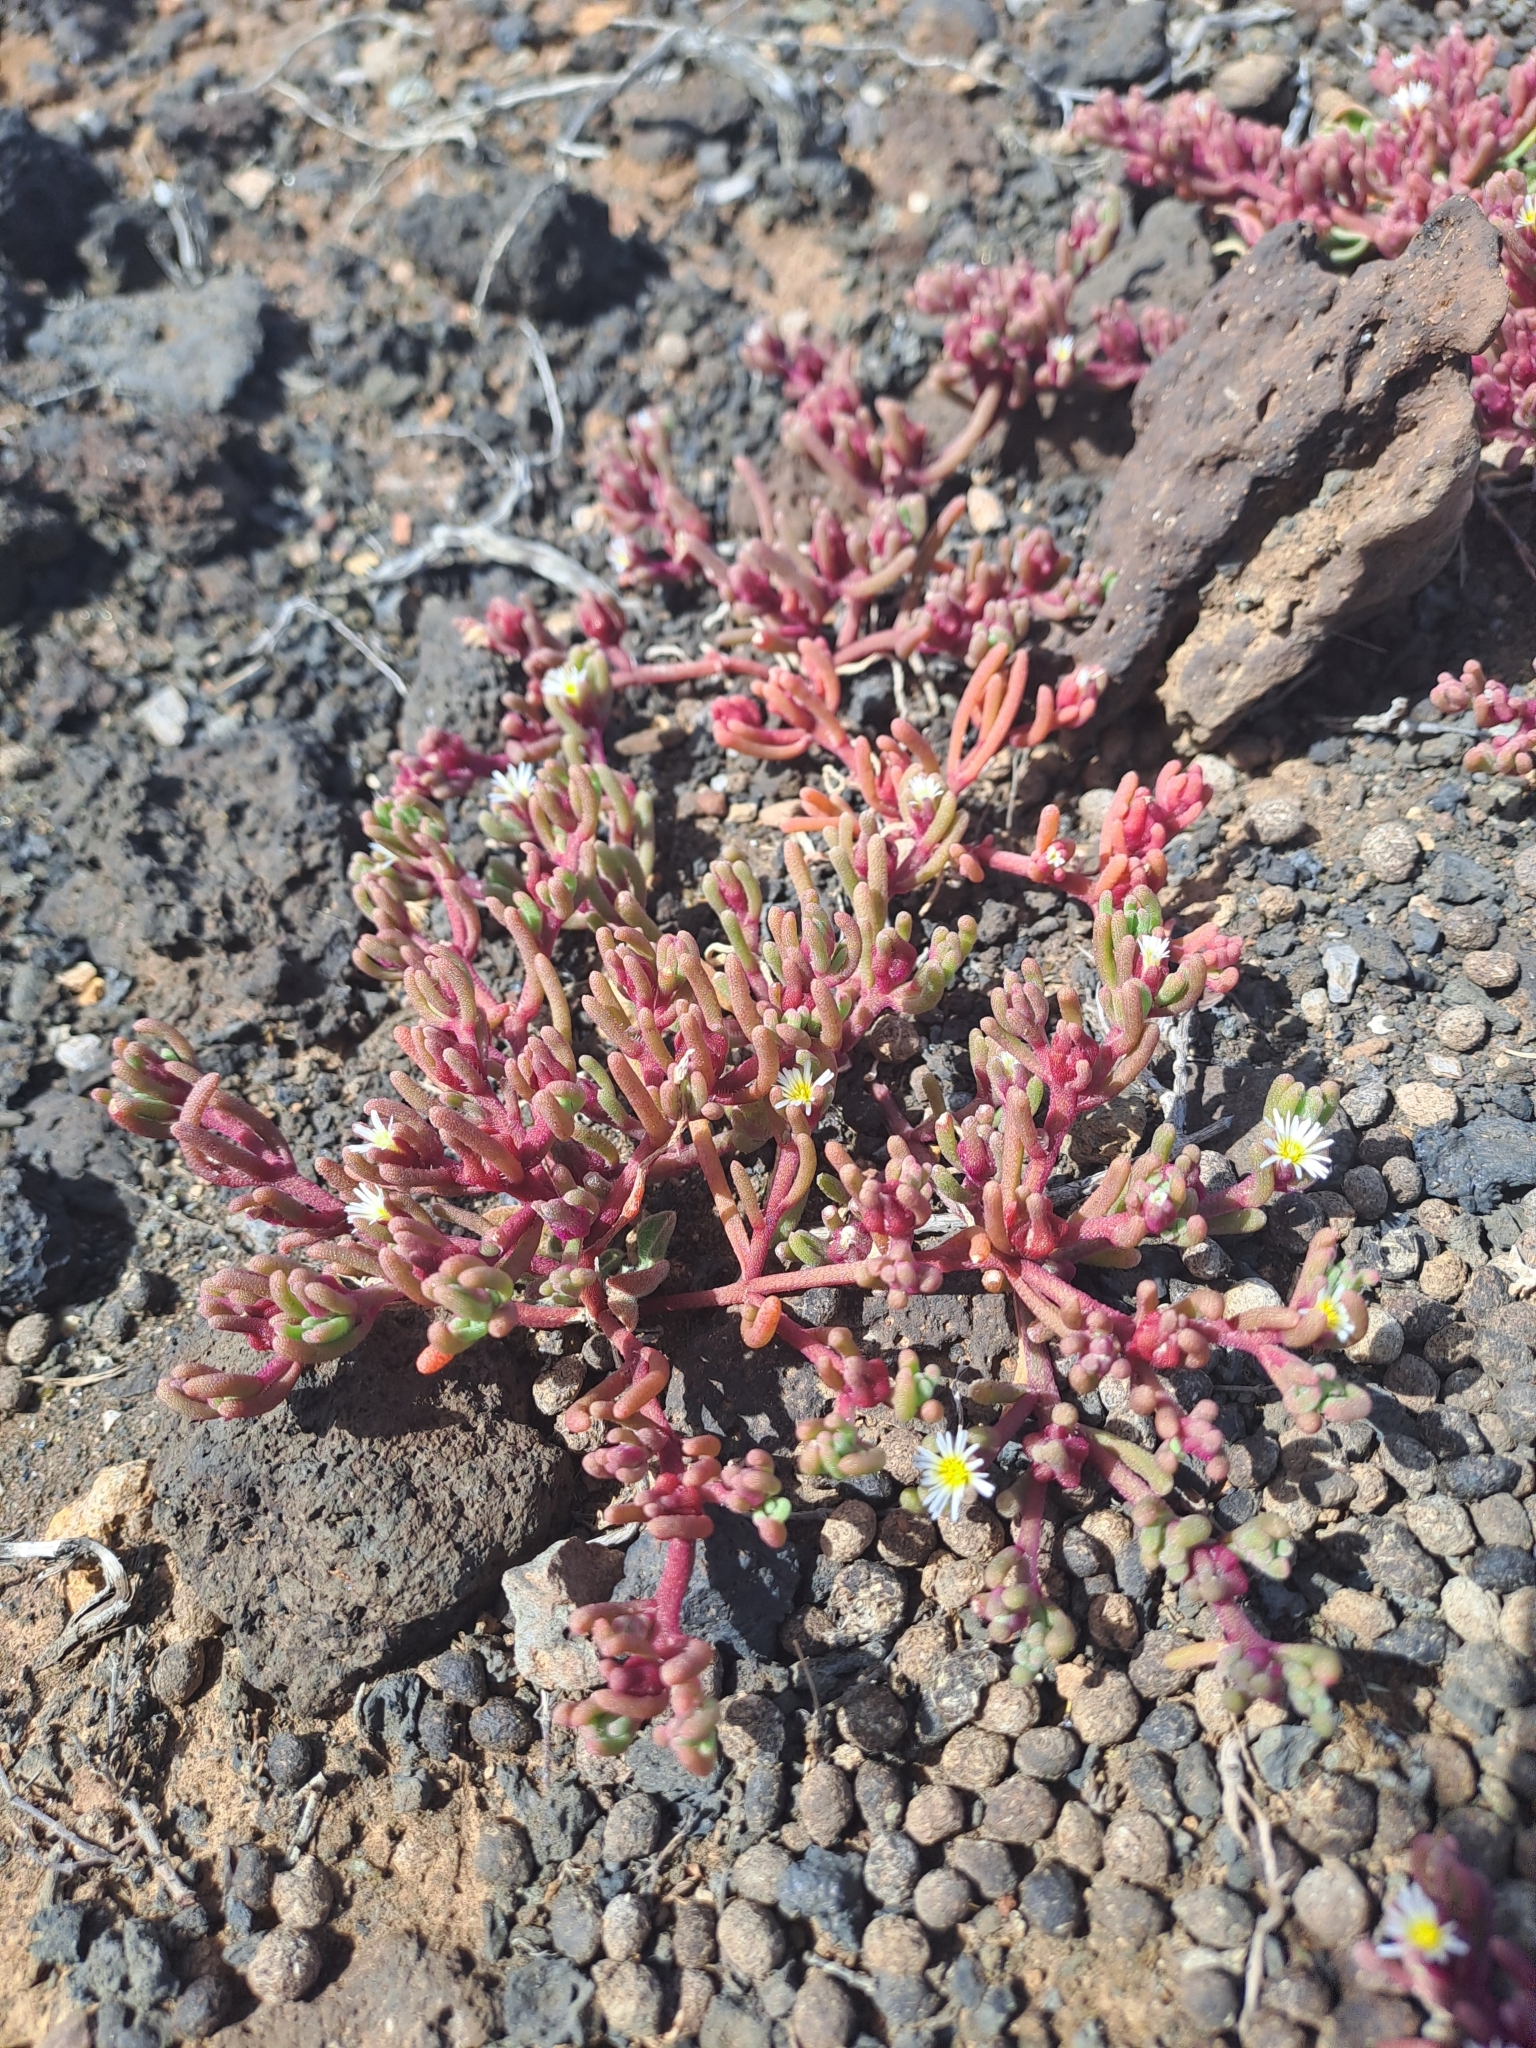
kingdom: Plantae
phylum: Tracheophyta
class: Magnoliopsida
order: Caryophyllales
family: Aizoaceae
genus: Mesembryanthemum
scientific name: Mesembryanthemum nodiflorum
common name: Slenderleaf iceplant
